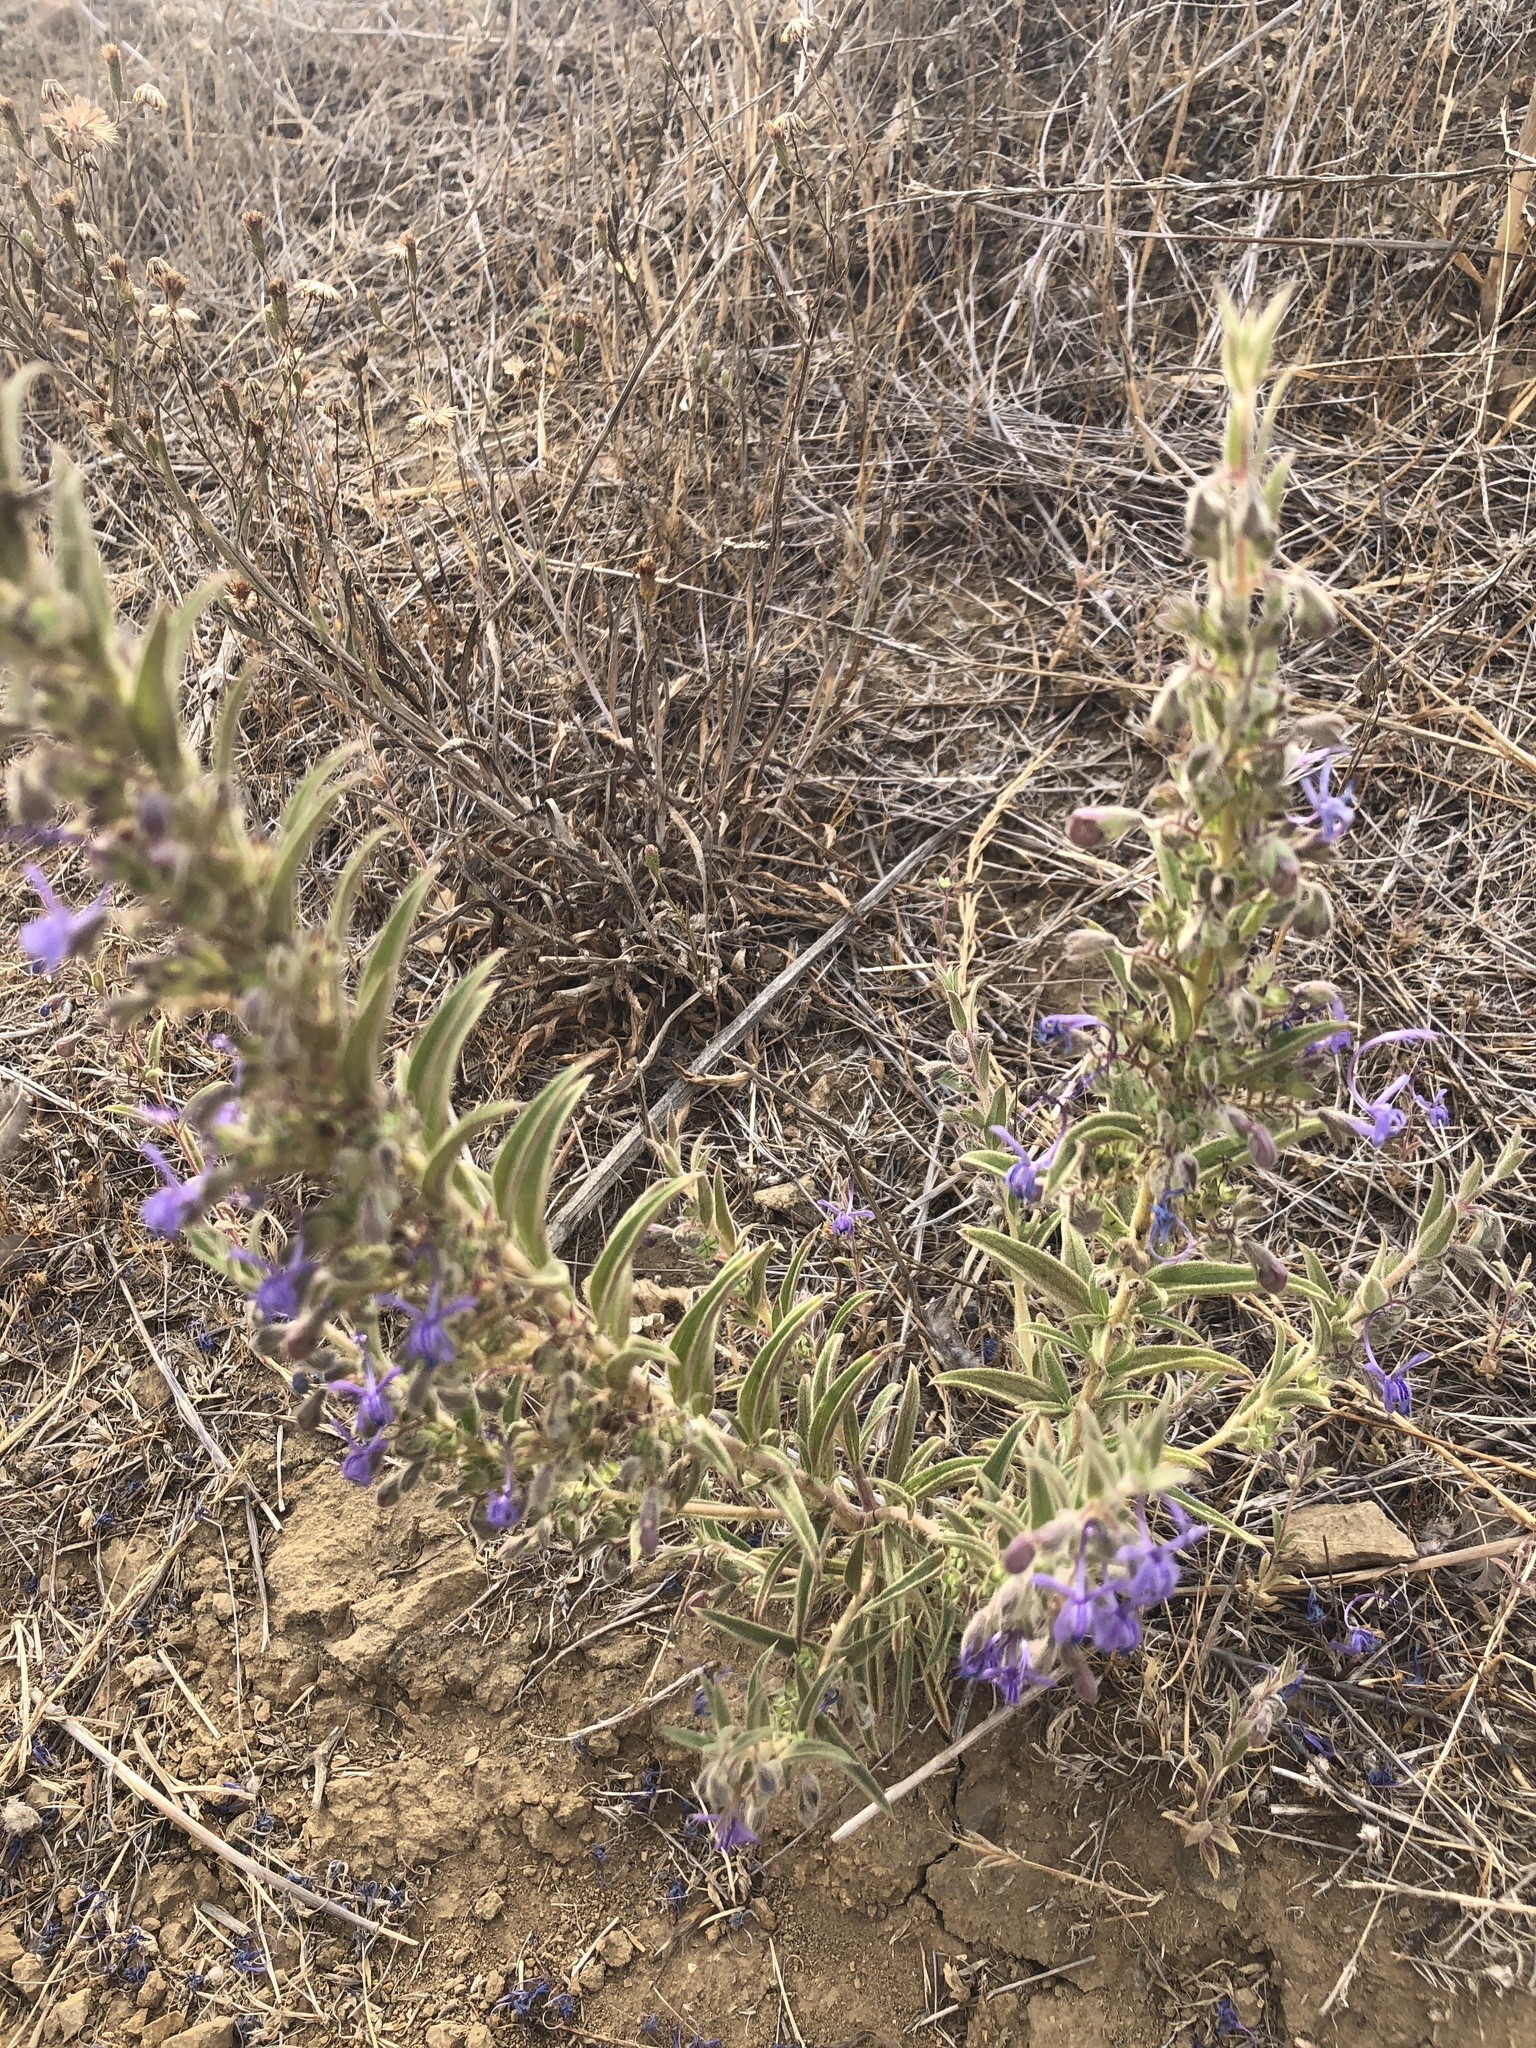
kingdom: Plantae
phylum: Tracheophyta
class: Magnoliopsida
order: Lamiales
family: Lamiaceae
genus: Trichostema
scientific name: Trichostema lanceolatum
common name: Vinegar-weed
